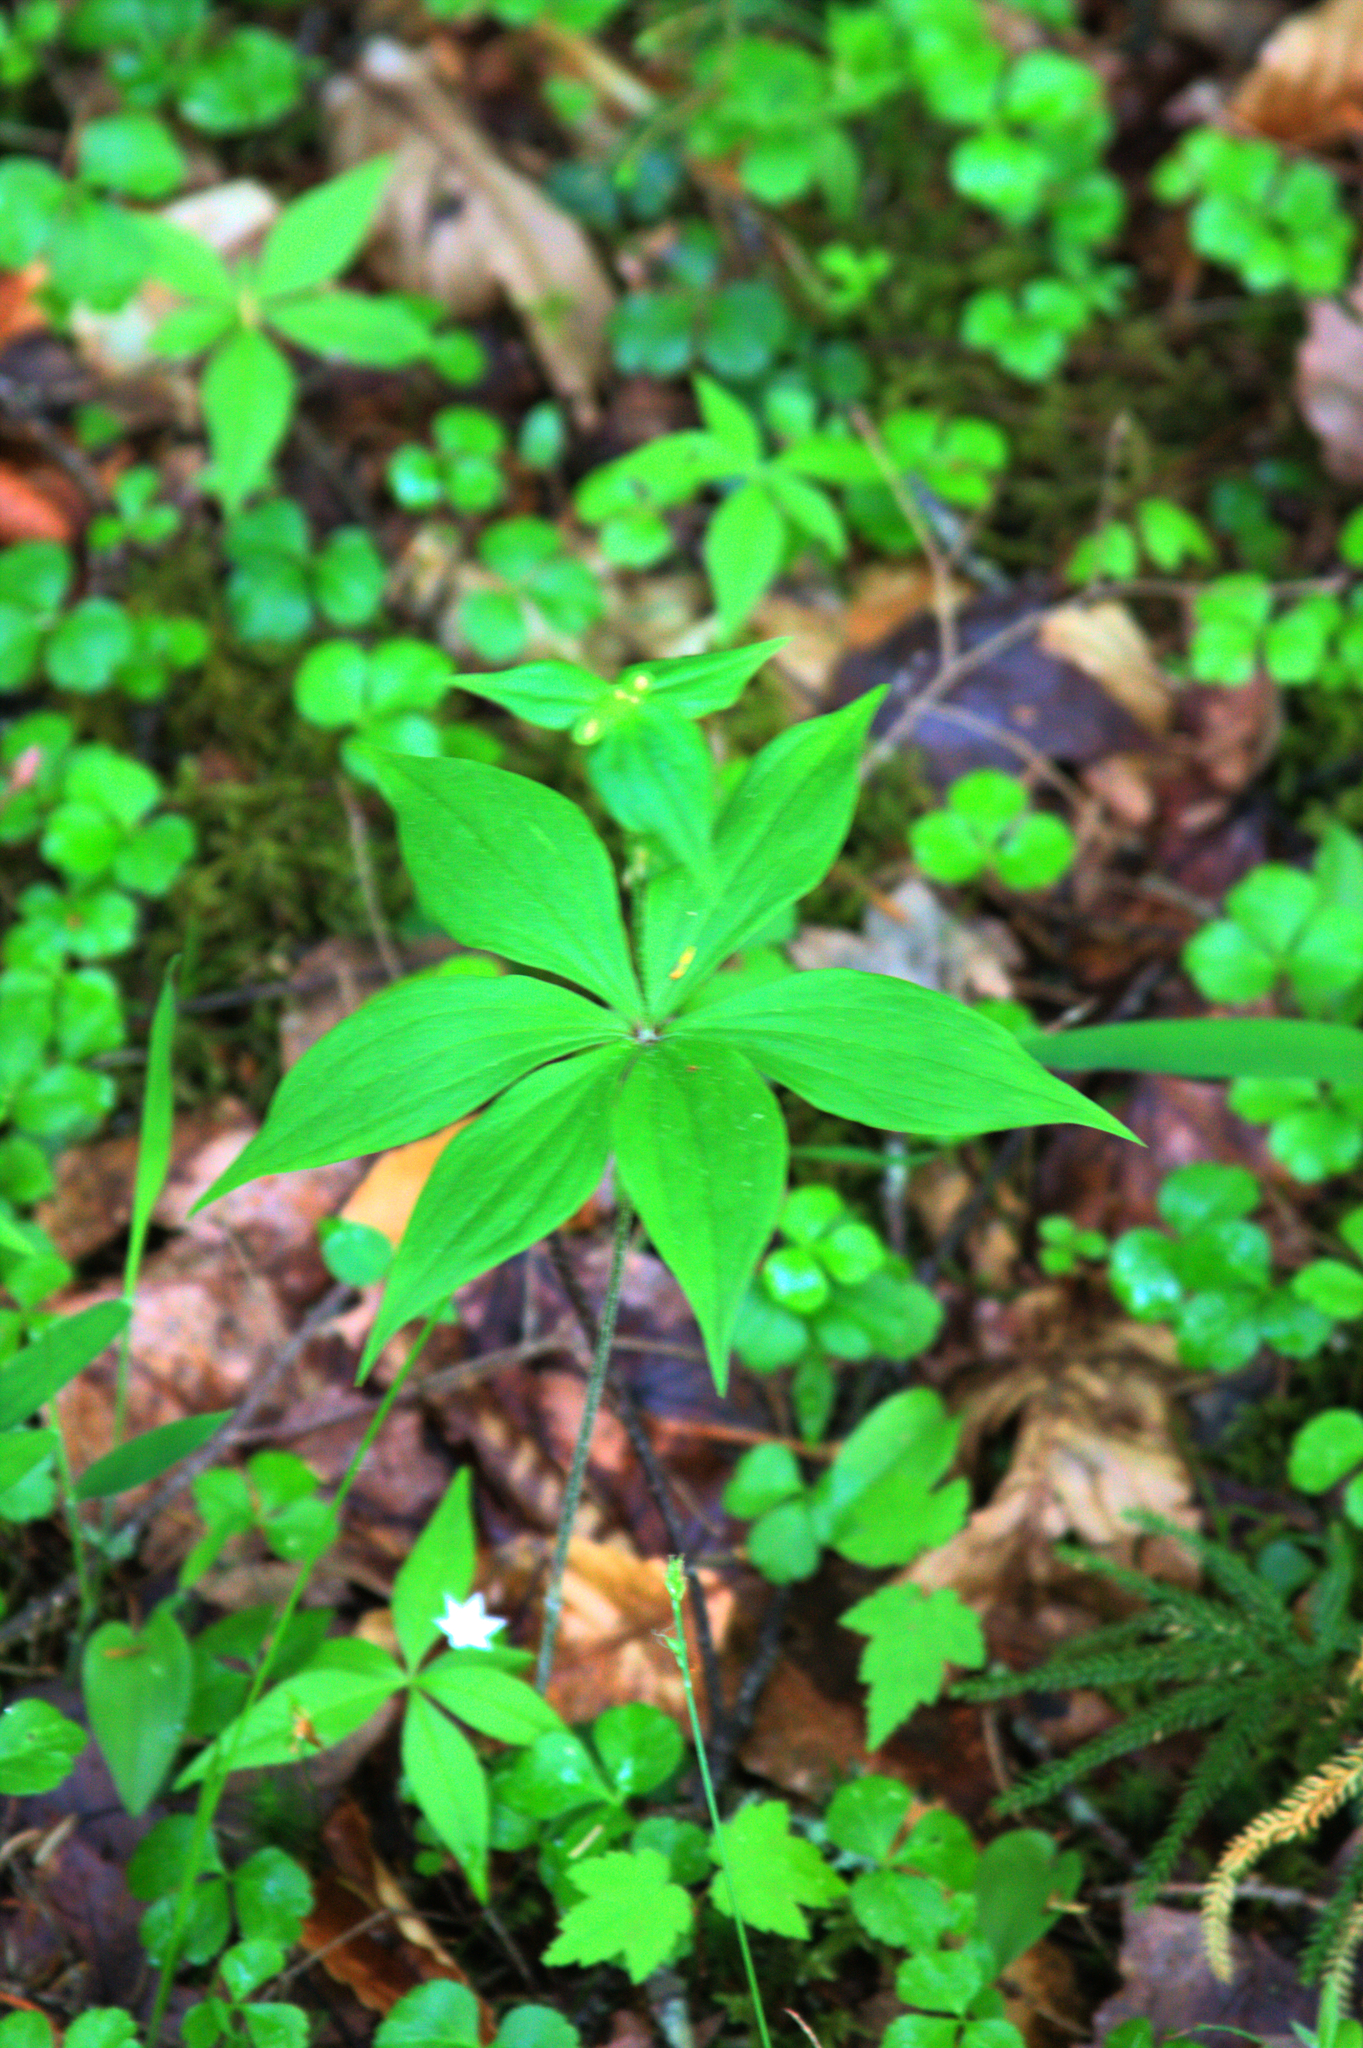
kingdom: Plantae
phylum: Tracheophyta
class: Liliopsida
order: Liliales
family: Liliaceae
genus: Medeola
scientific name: Medeola virginiana
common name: Indian cucumber-root
